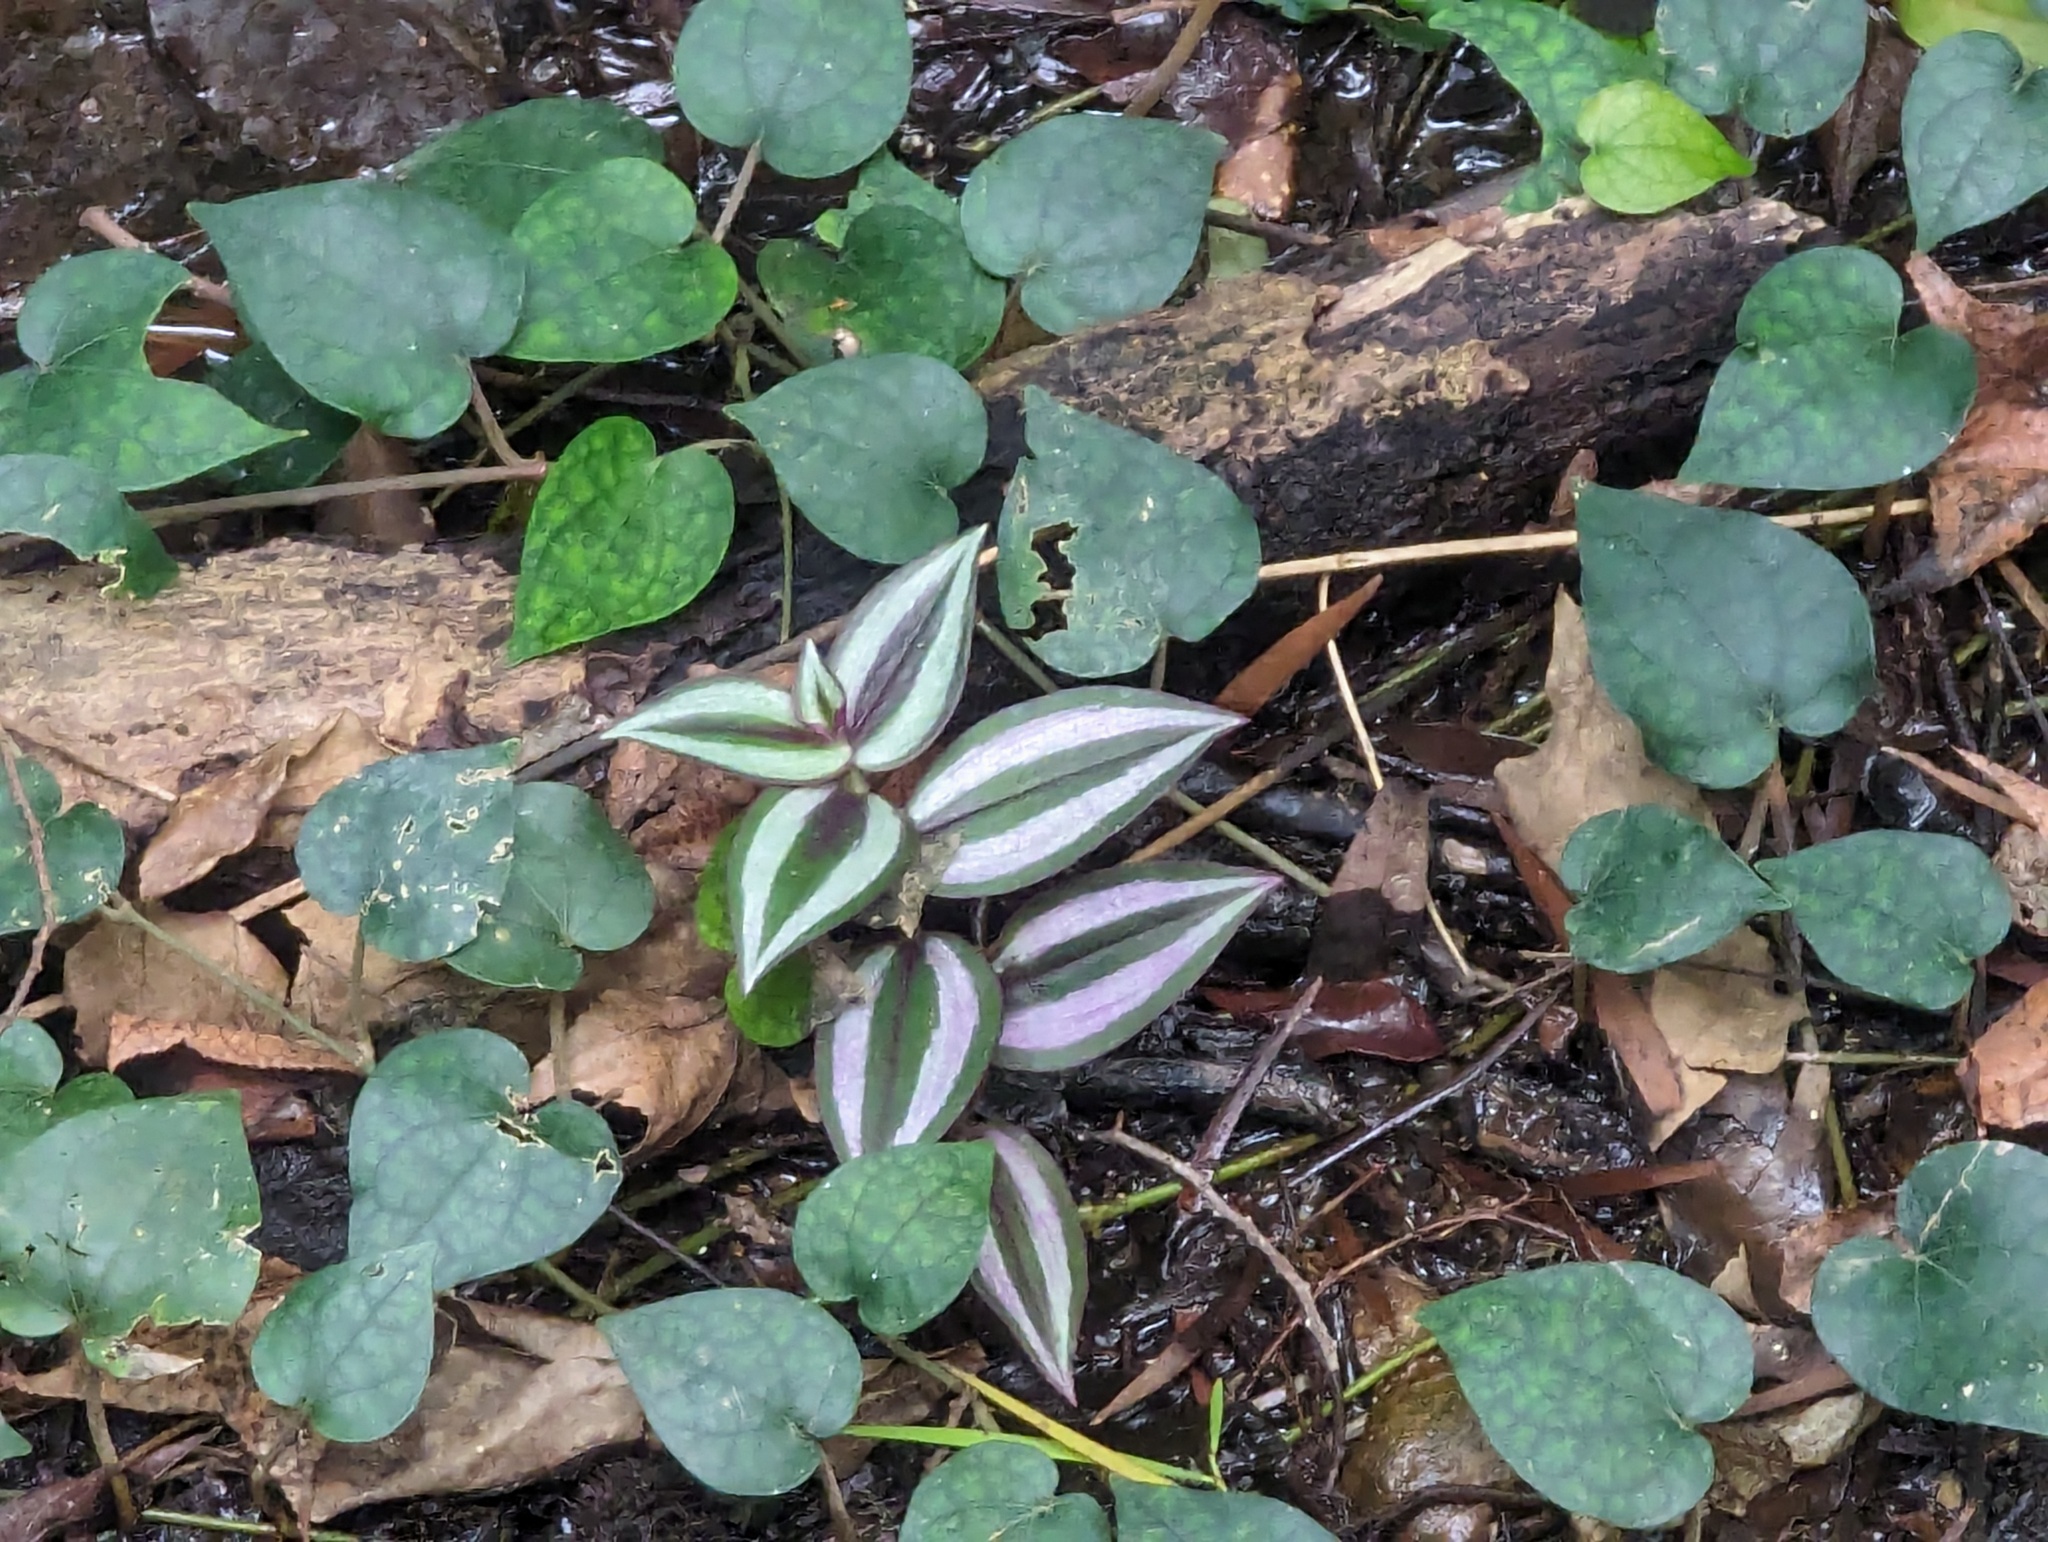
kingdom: Plantae
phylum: Tracheophyta
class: Liliopsida
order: Commelinales
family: Commelinaceae
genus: Tradescantia
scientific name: Tradescantia zebrina
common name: Inchplant
